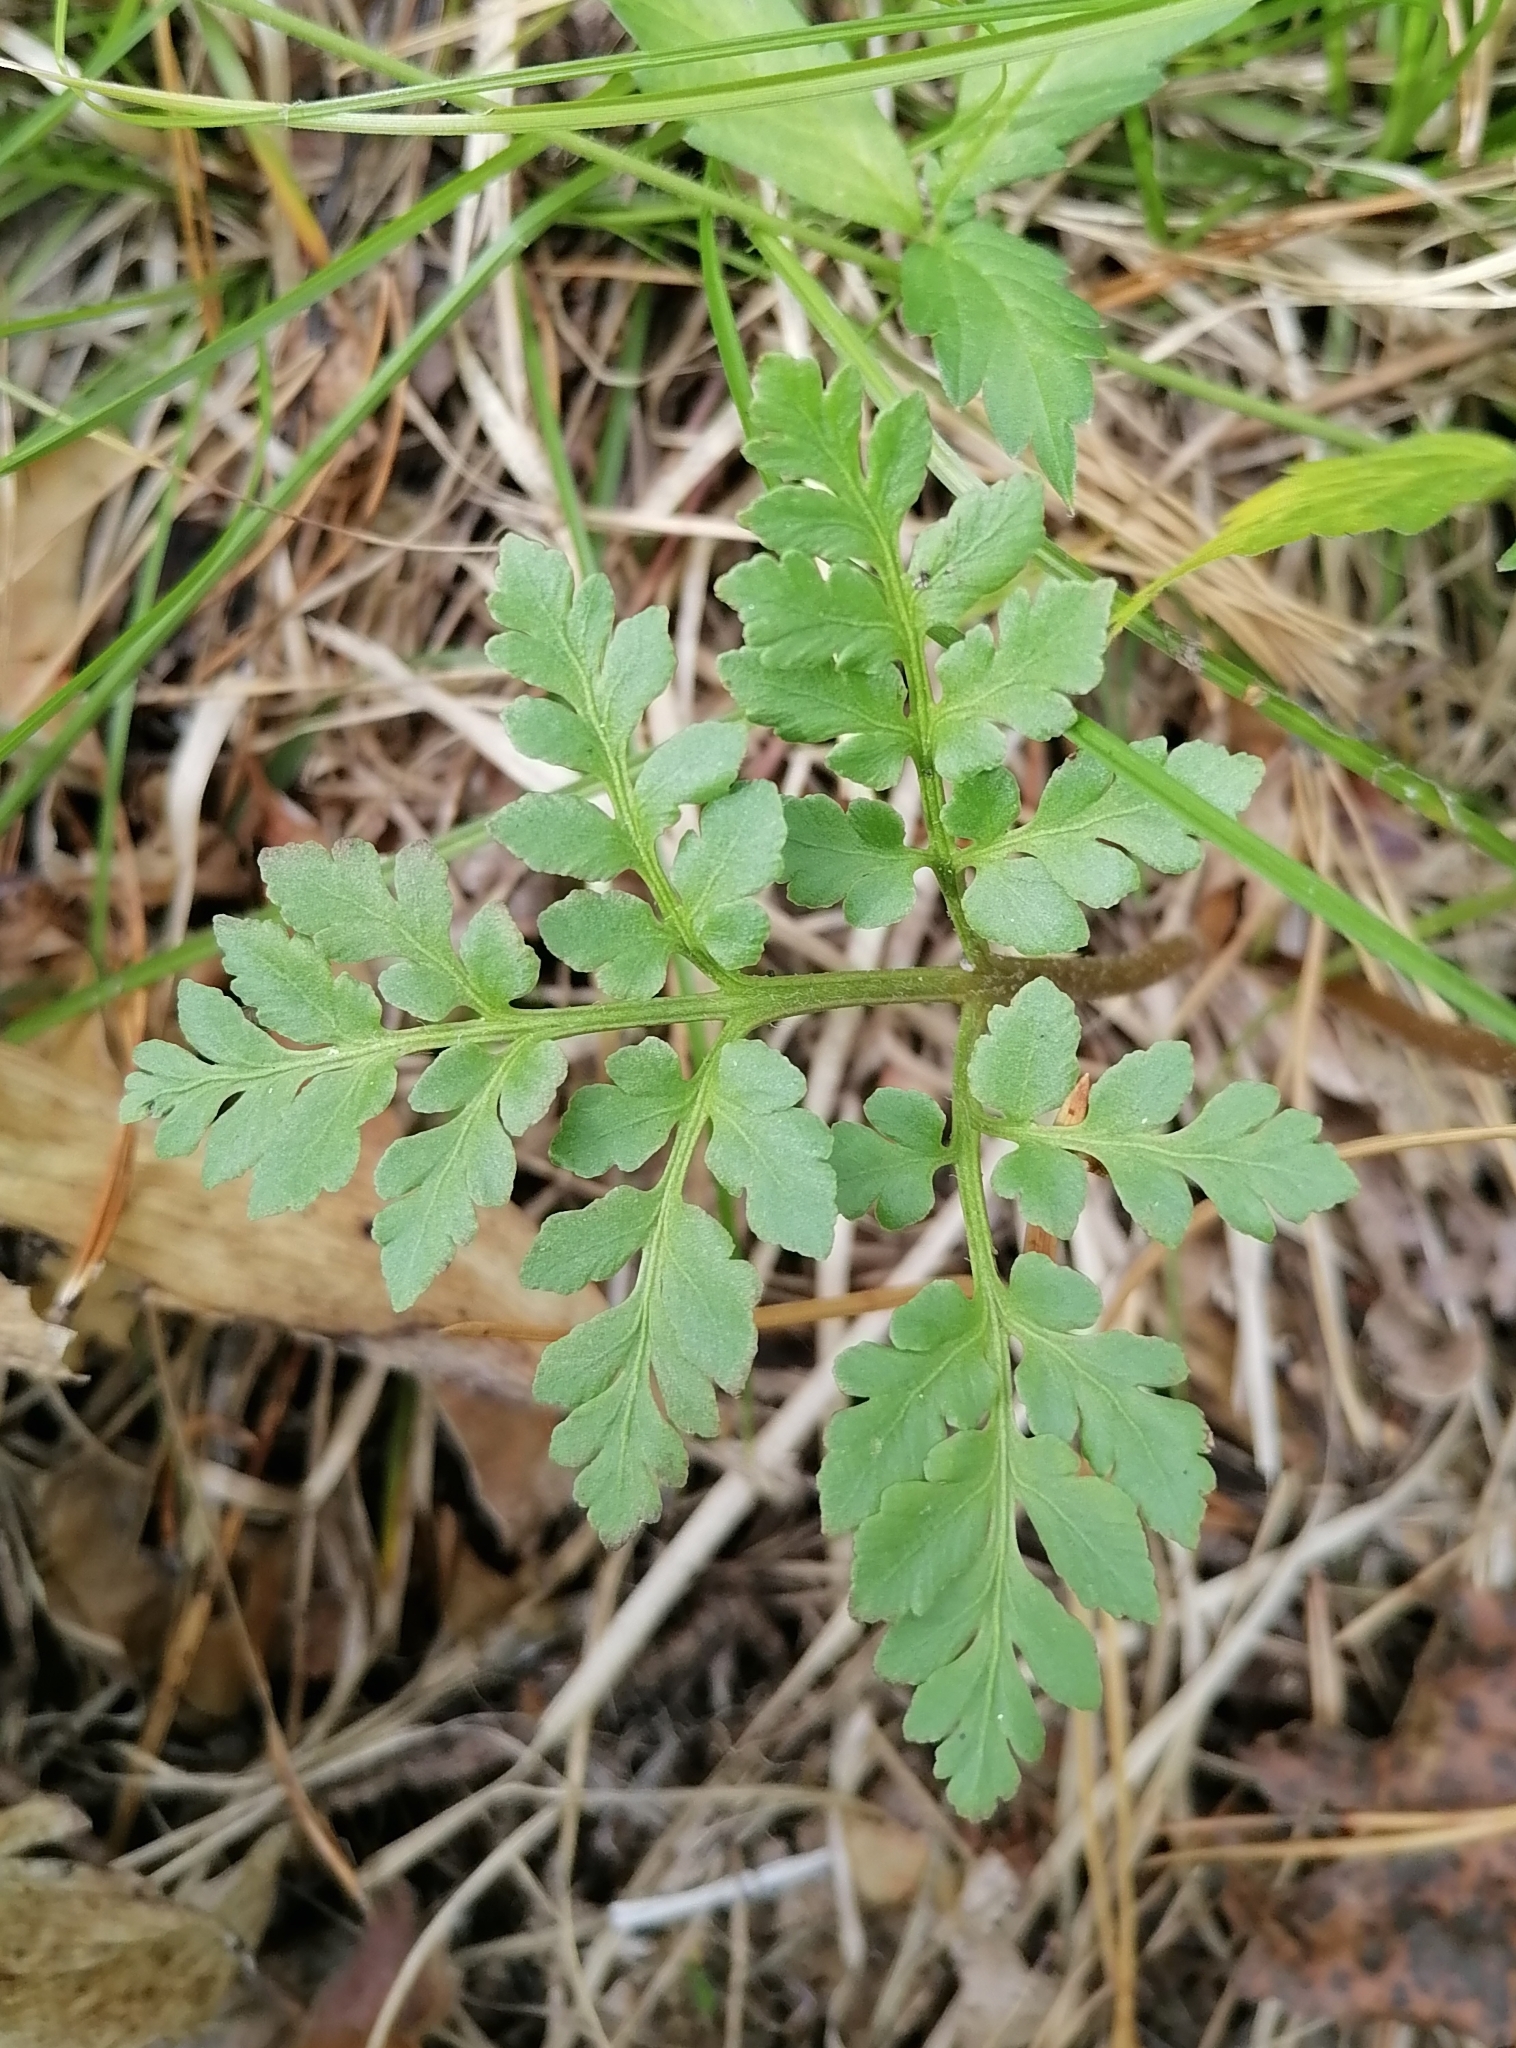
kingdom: Plantae
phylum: Tracheophyta
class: Polypodiopsida
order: Ophioglossales
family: Ophioglossaceae
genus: Sceptridium
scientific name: Sceptridium multifidum
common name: Leathery grape fern
